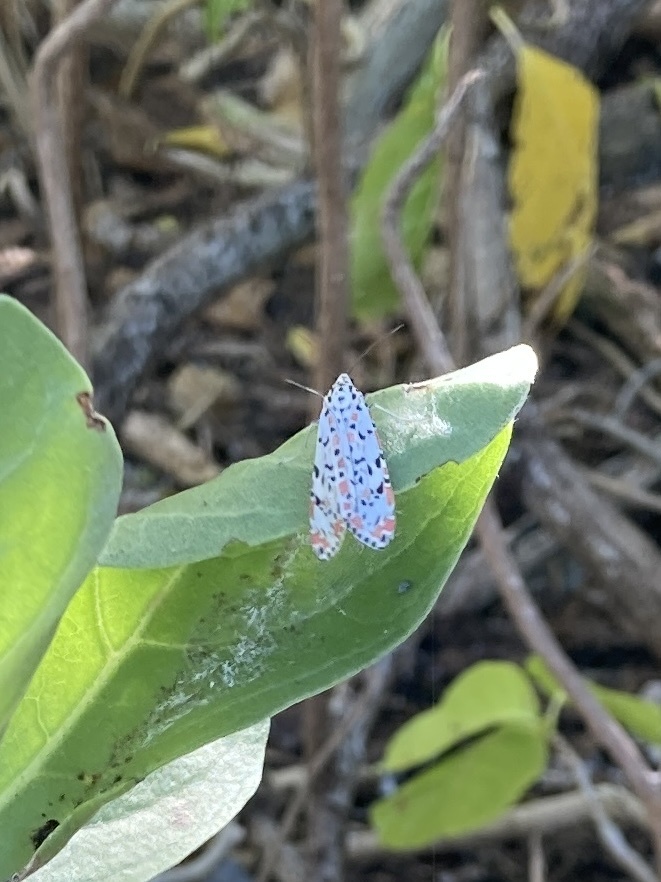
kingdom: Animalia
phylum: Arthropoda
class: Insecta
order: Lepidoptera
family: Erebidae
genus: Utetheisa
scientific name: Utetheisa pulchelloides
